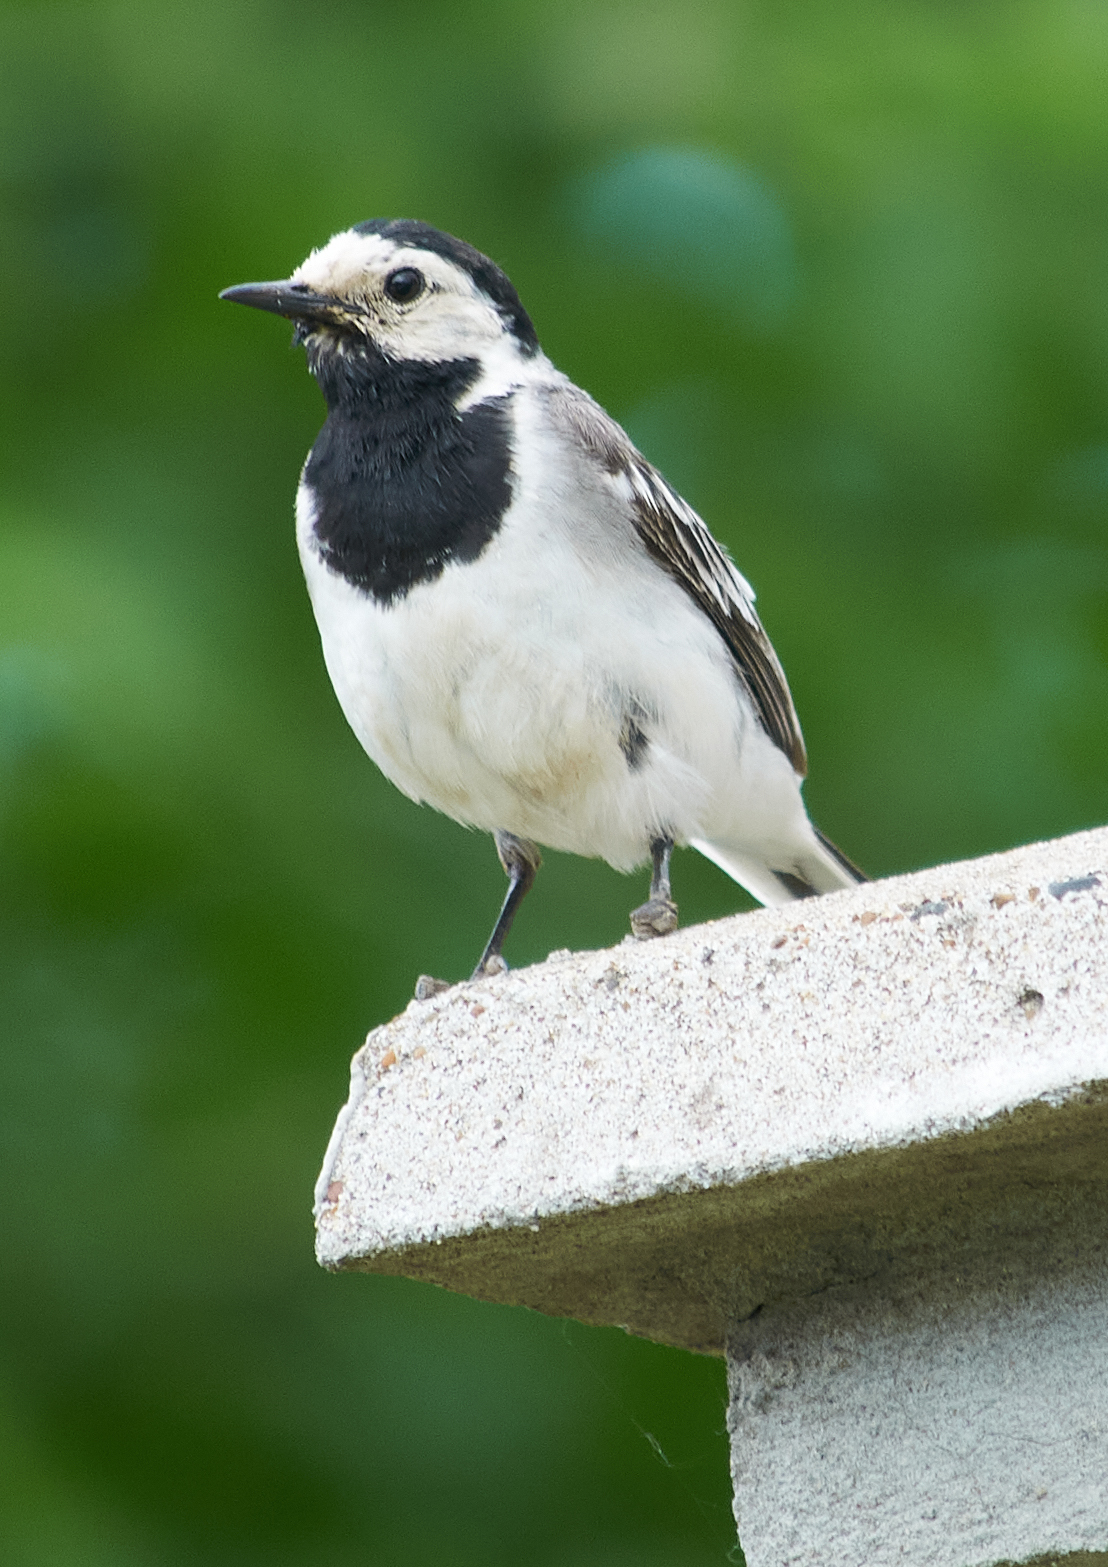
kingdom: Animalia
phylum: Chordata
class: Aves
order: Passeriformes
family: Motacillidae
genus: Motacilla
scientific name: Motacilla alba
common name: White wagtail
